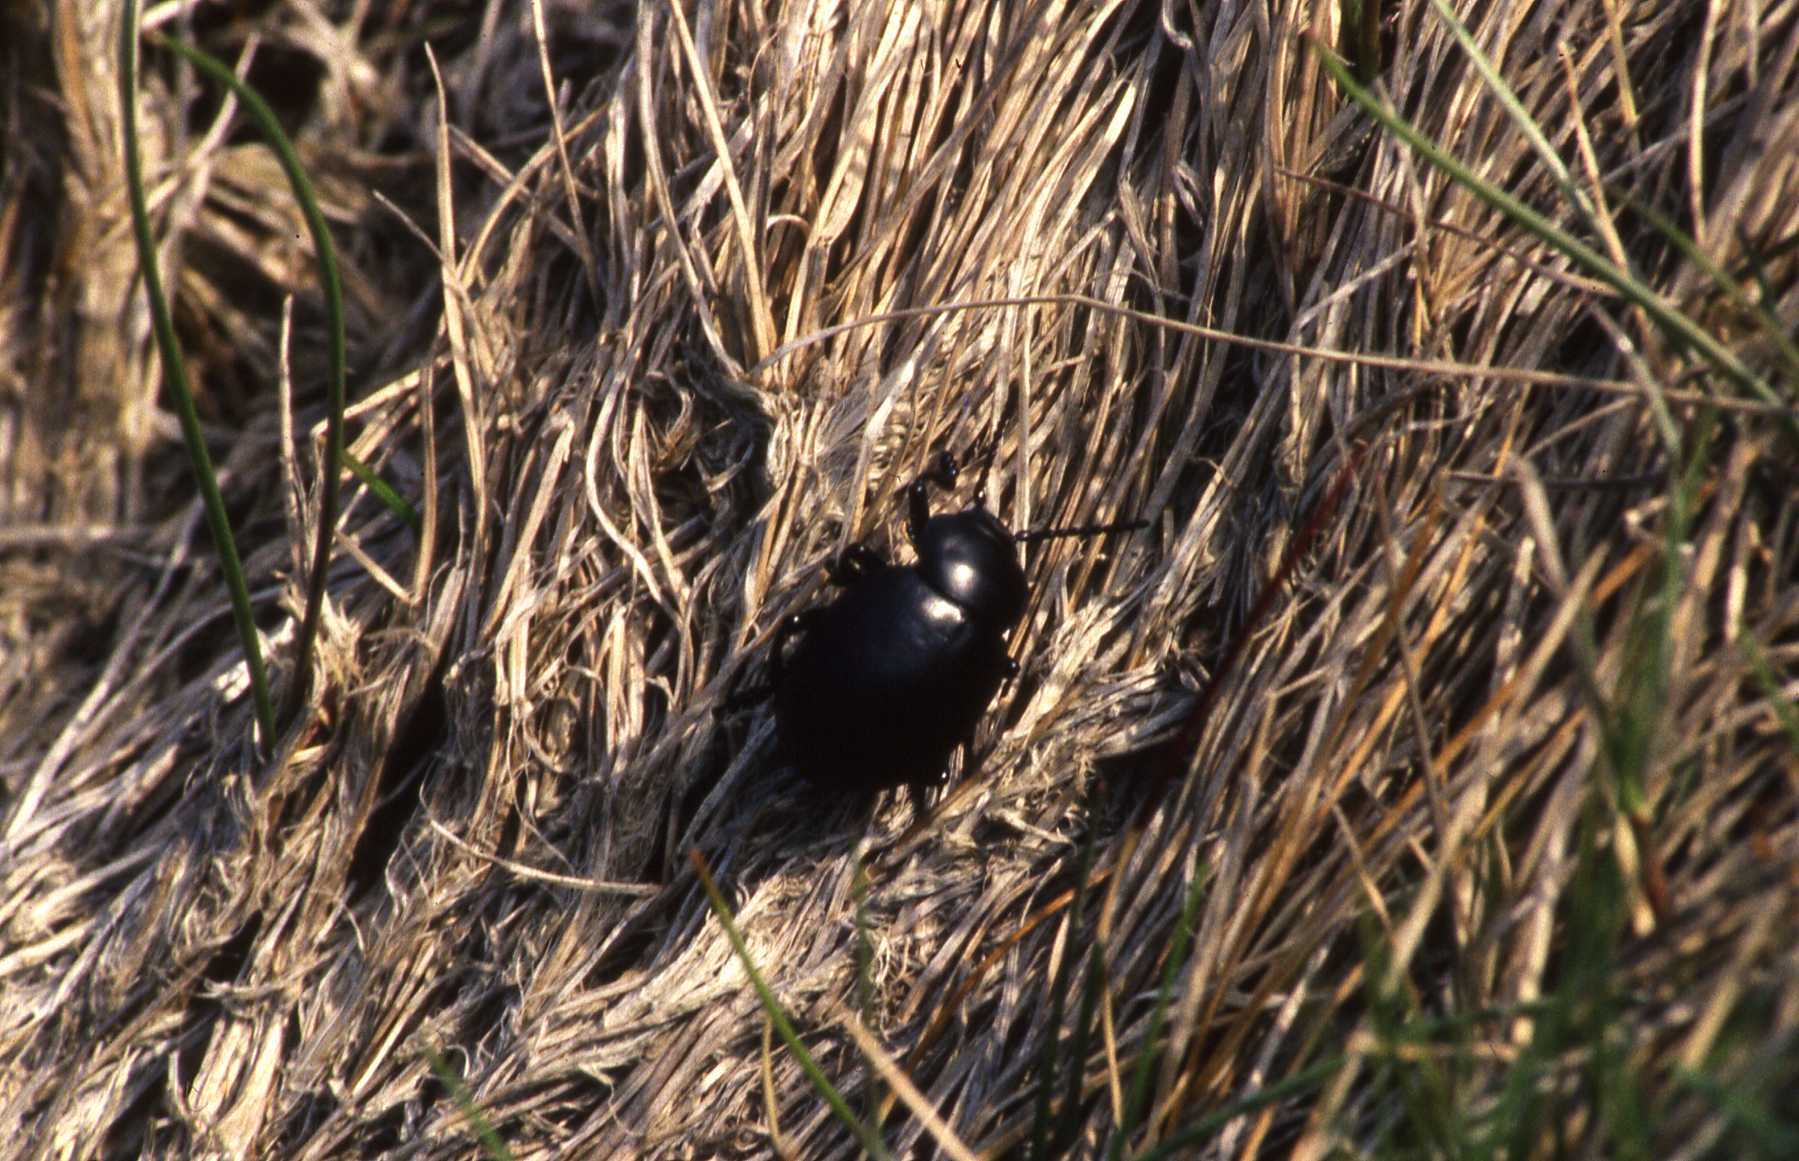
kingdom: Animalia
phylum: Arthropoda
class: Insecta
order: Coleoptera
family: Chrysomelidae
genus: Timarcha
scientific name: Timarcha tenebricosa
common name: Bloody-nosed beetle
